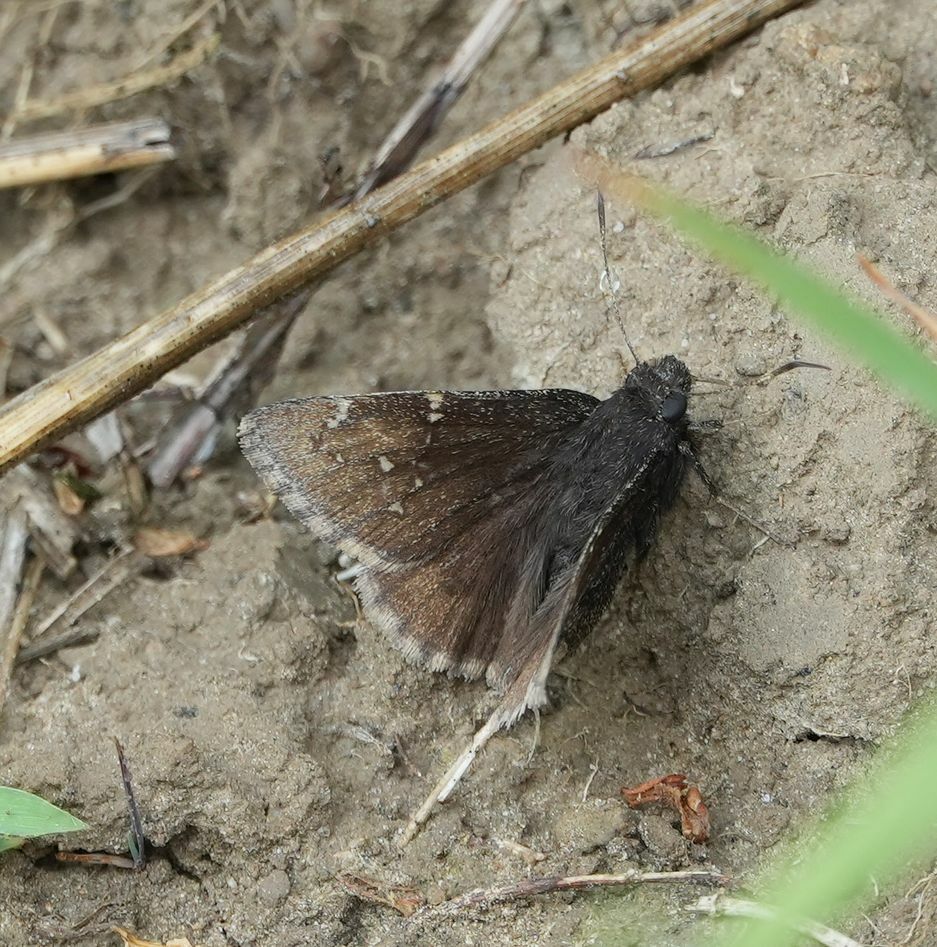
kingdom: Animalia
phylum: Arthropoda
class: Insecta
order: Lepidoptera
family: Hesperiidae
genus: Thorybes
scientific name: Thorybes pylades
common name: Northern cloudywing
